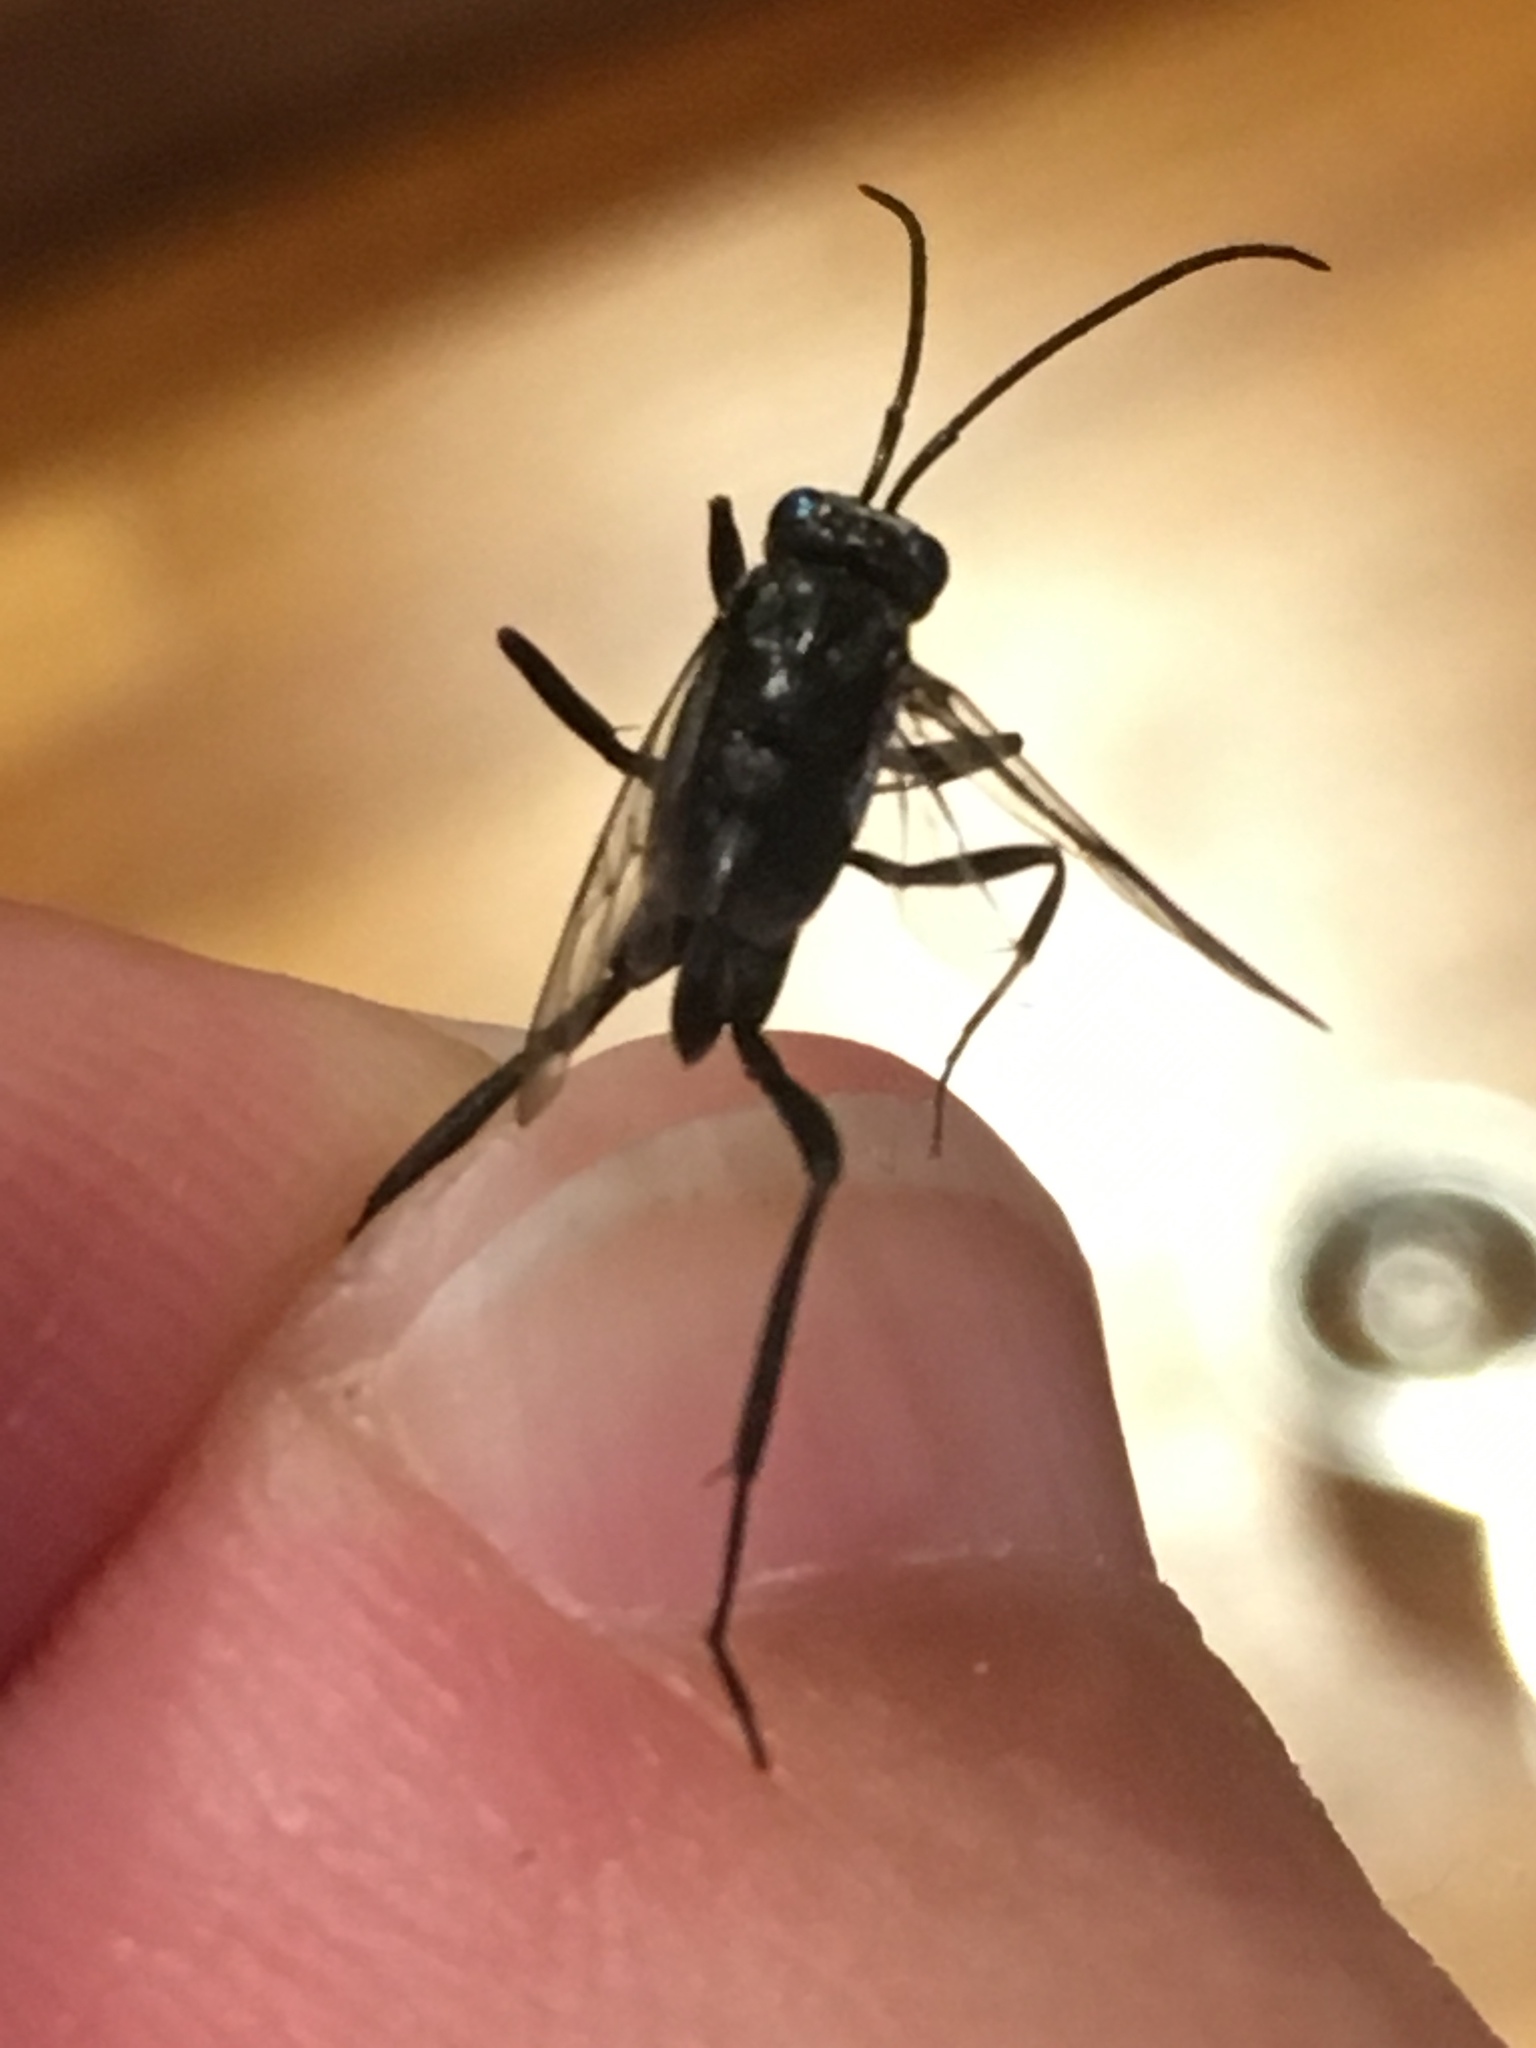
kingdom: Animalia
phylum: Arthropoda
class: Insecta
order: Hymenoptera
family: Evaniidae
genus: Evania
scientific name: Evania appendigaster
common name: Ensign wasp
